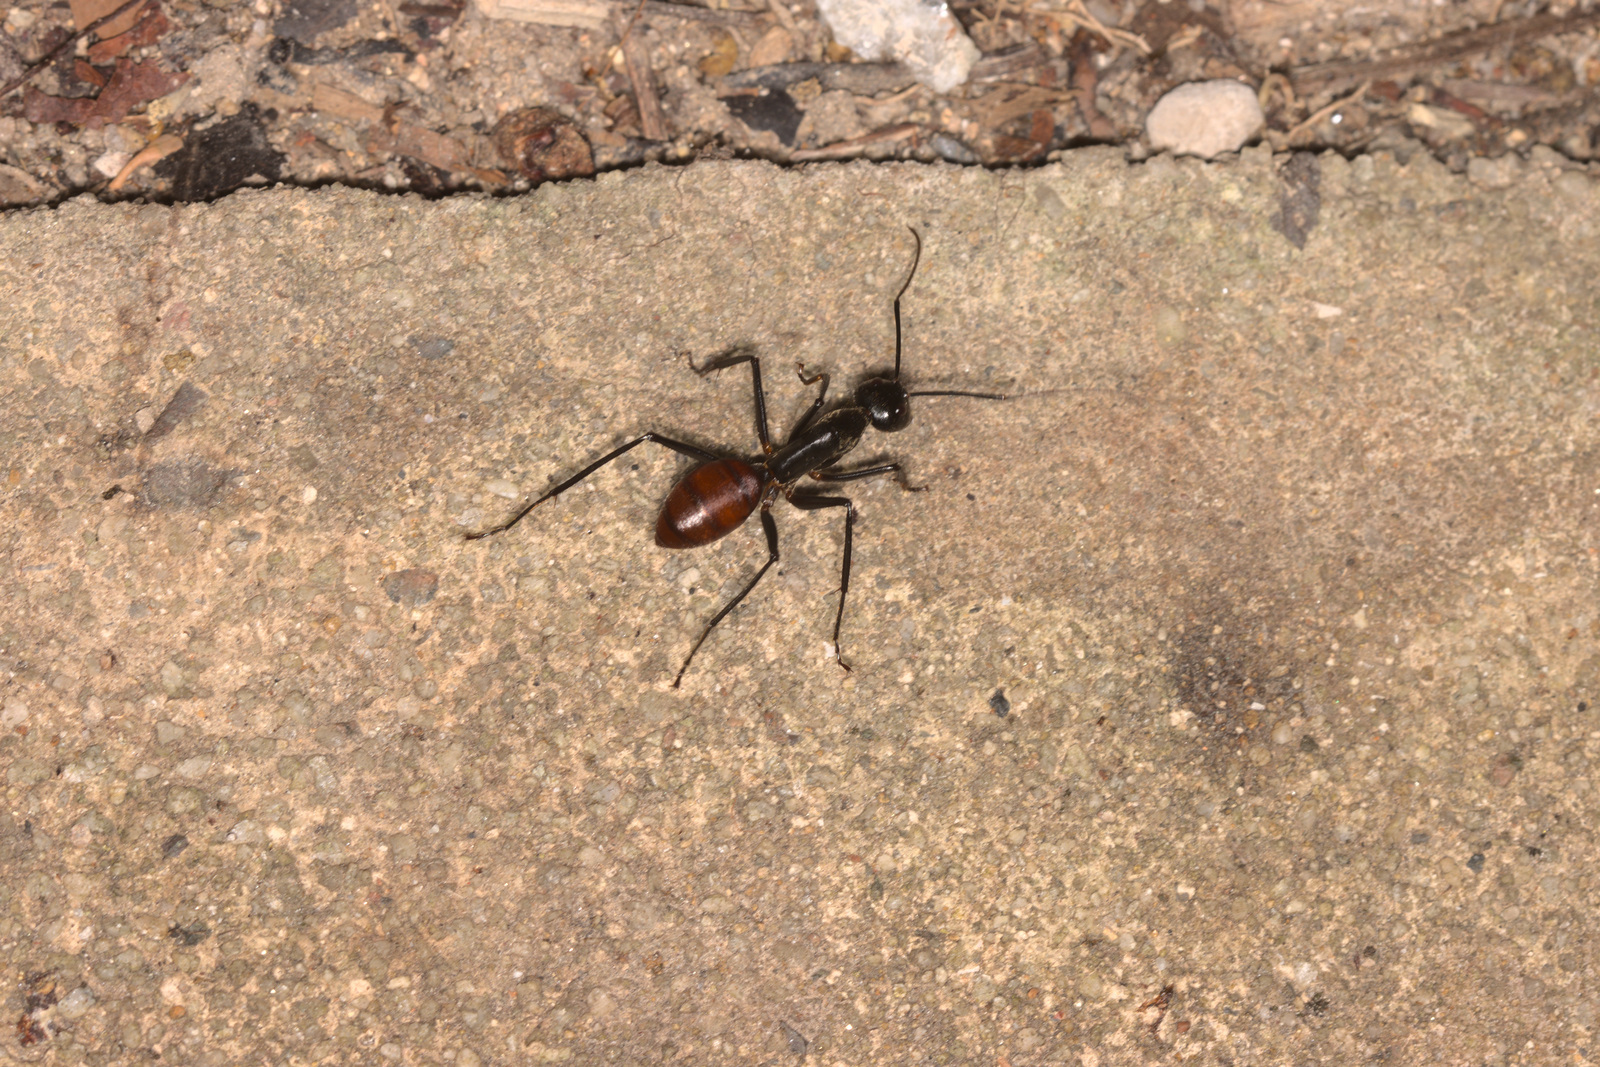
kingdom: Animalia
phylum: Arthropoda
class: Insecta
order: Hymenoptera
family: Formicidae
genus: Dinomyrmex
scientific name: Dinomyrmex
